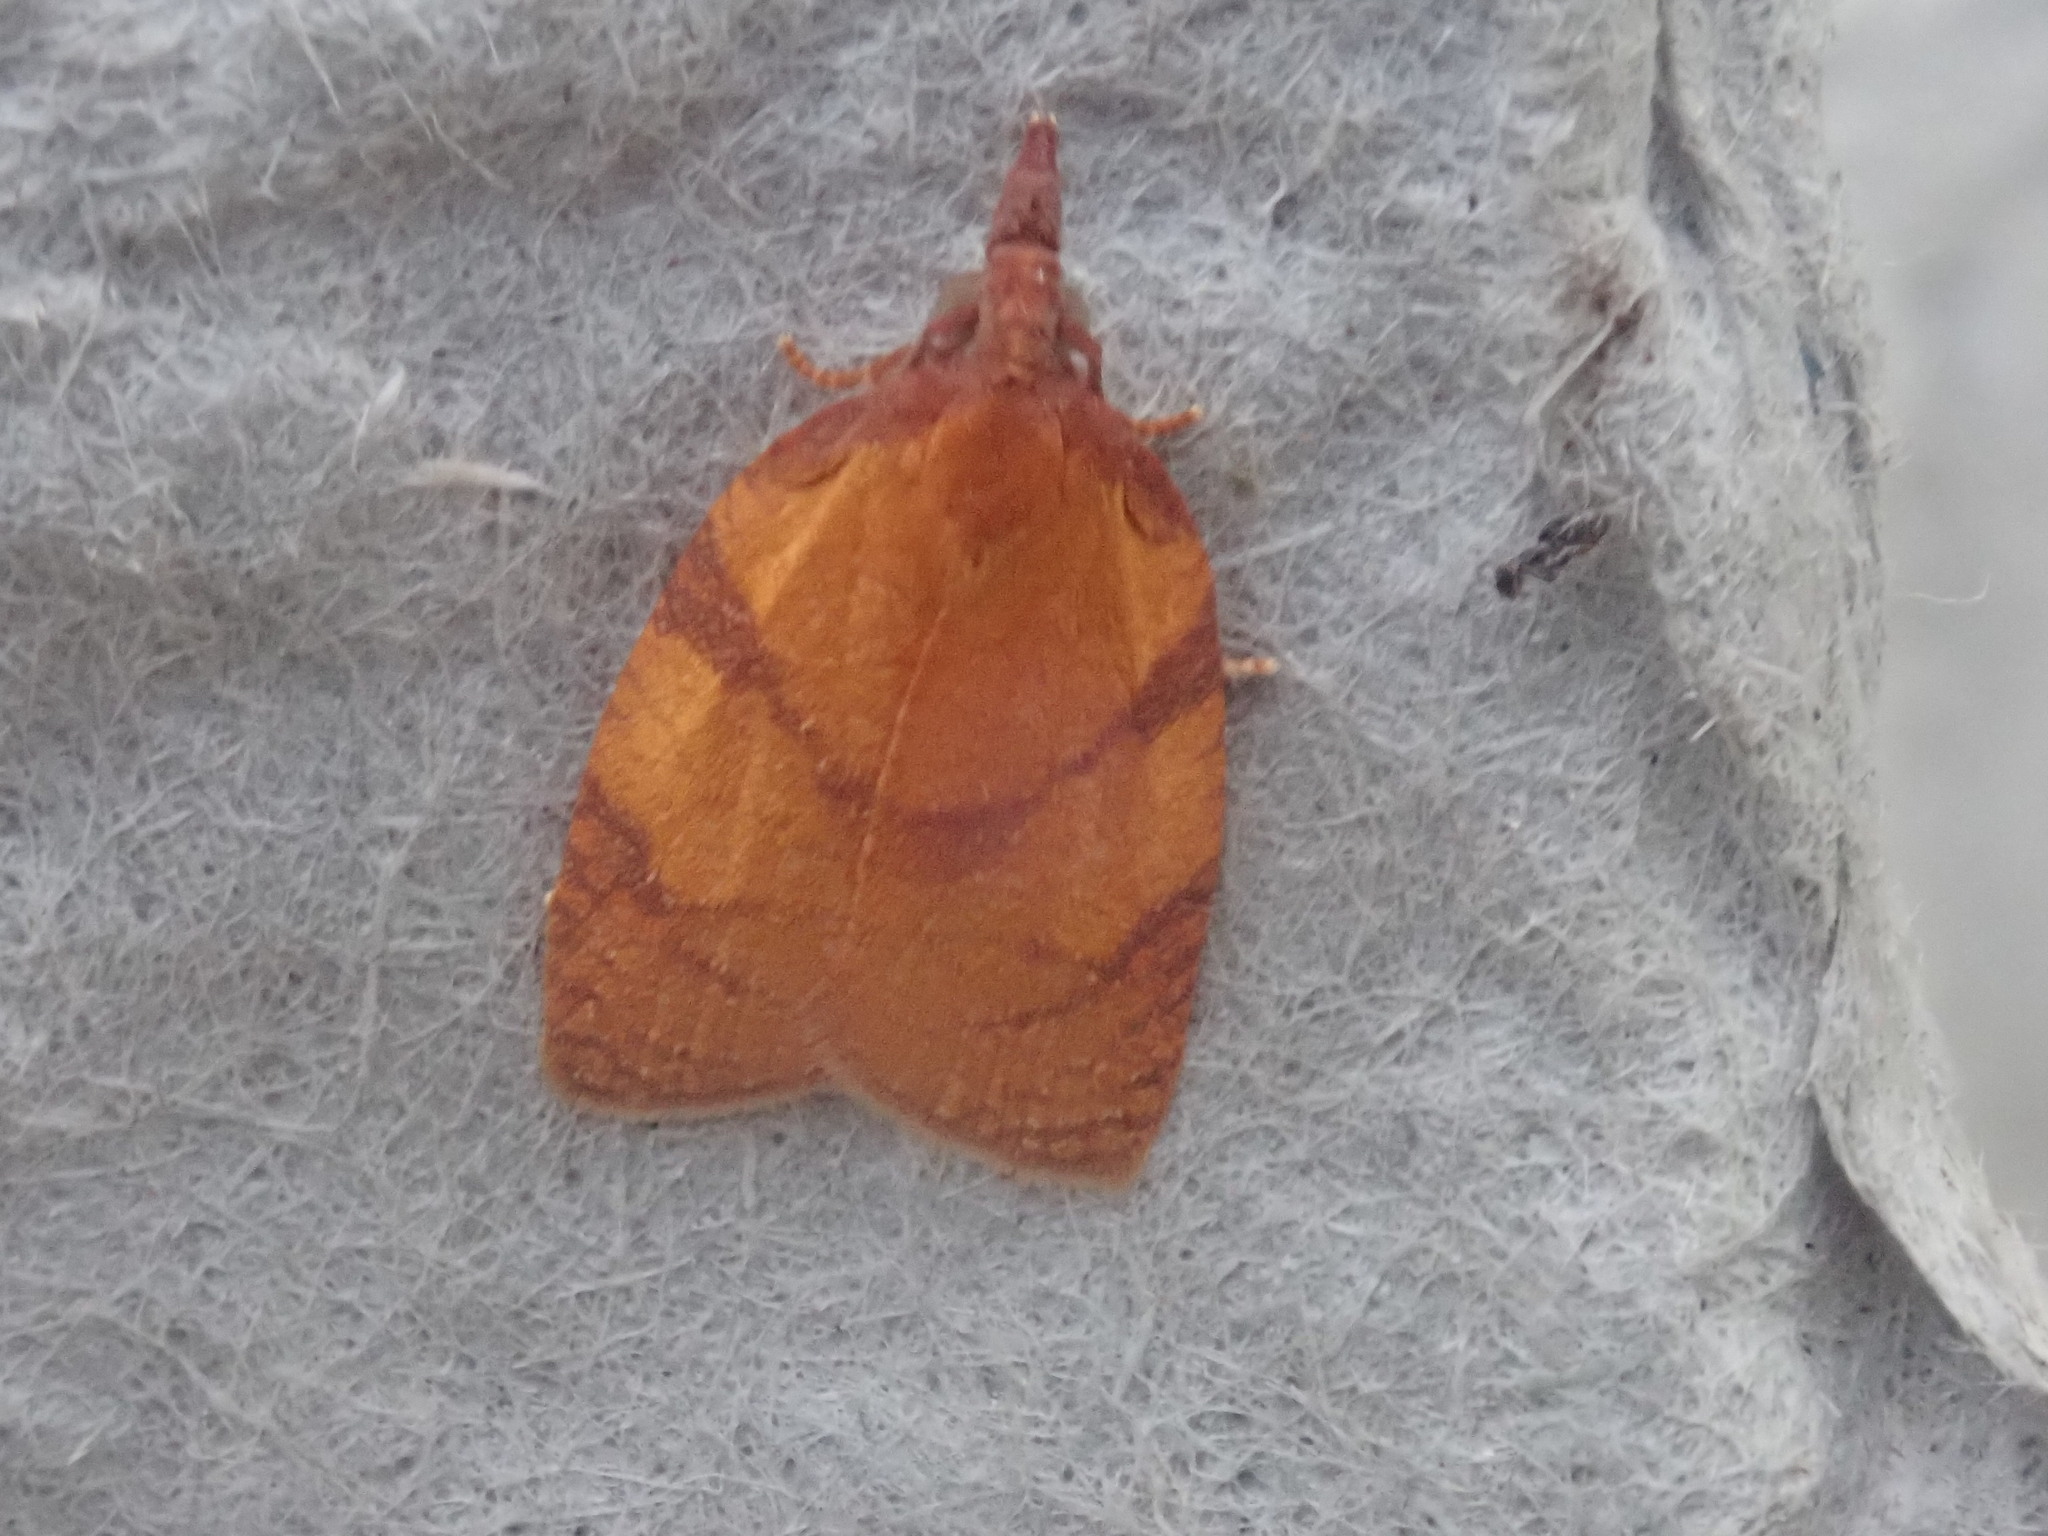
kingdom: Animalia
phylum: Arthropoda
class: Insecta
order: Lepidoptera
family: Tortricidae
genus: Cenopis
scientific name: Cenopis directana
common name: Chokecherry leafroller moth
